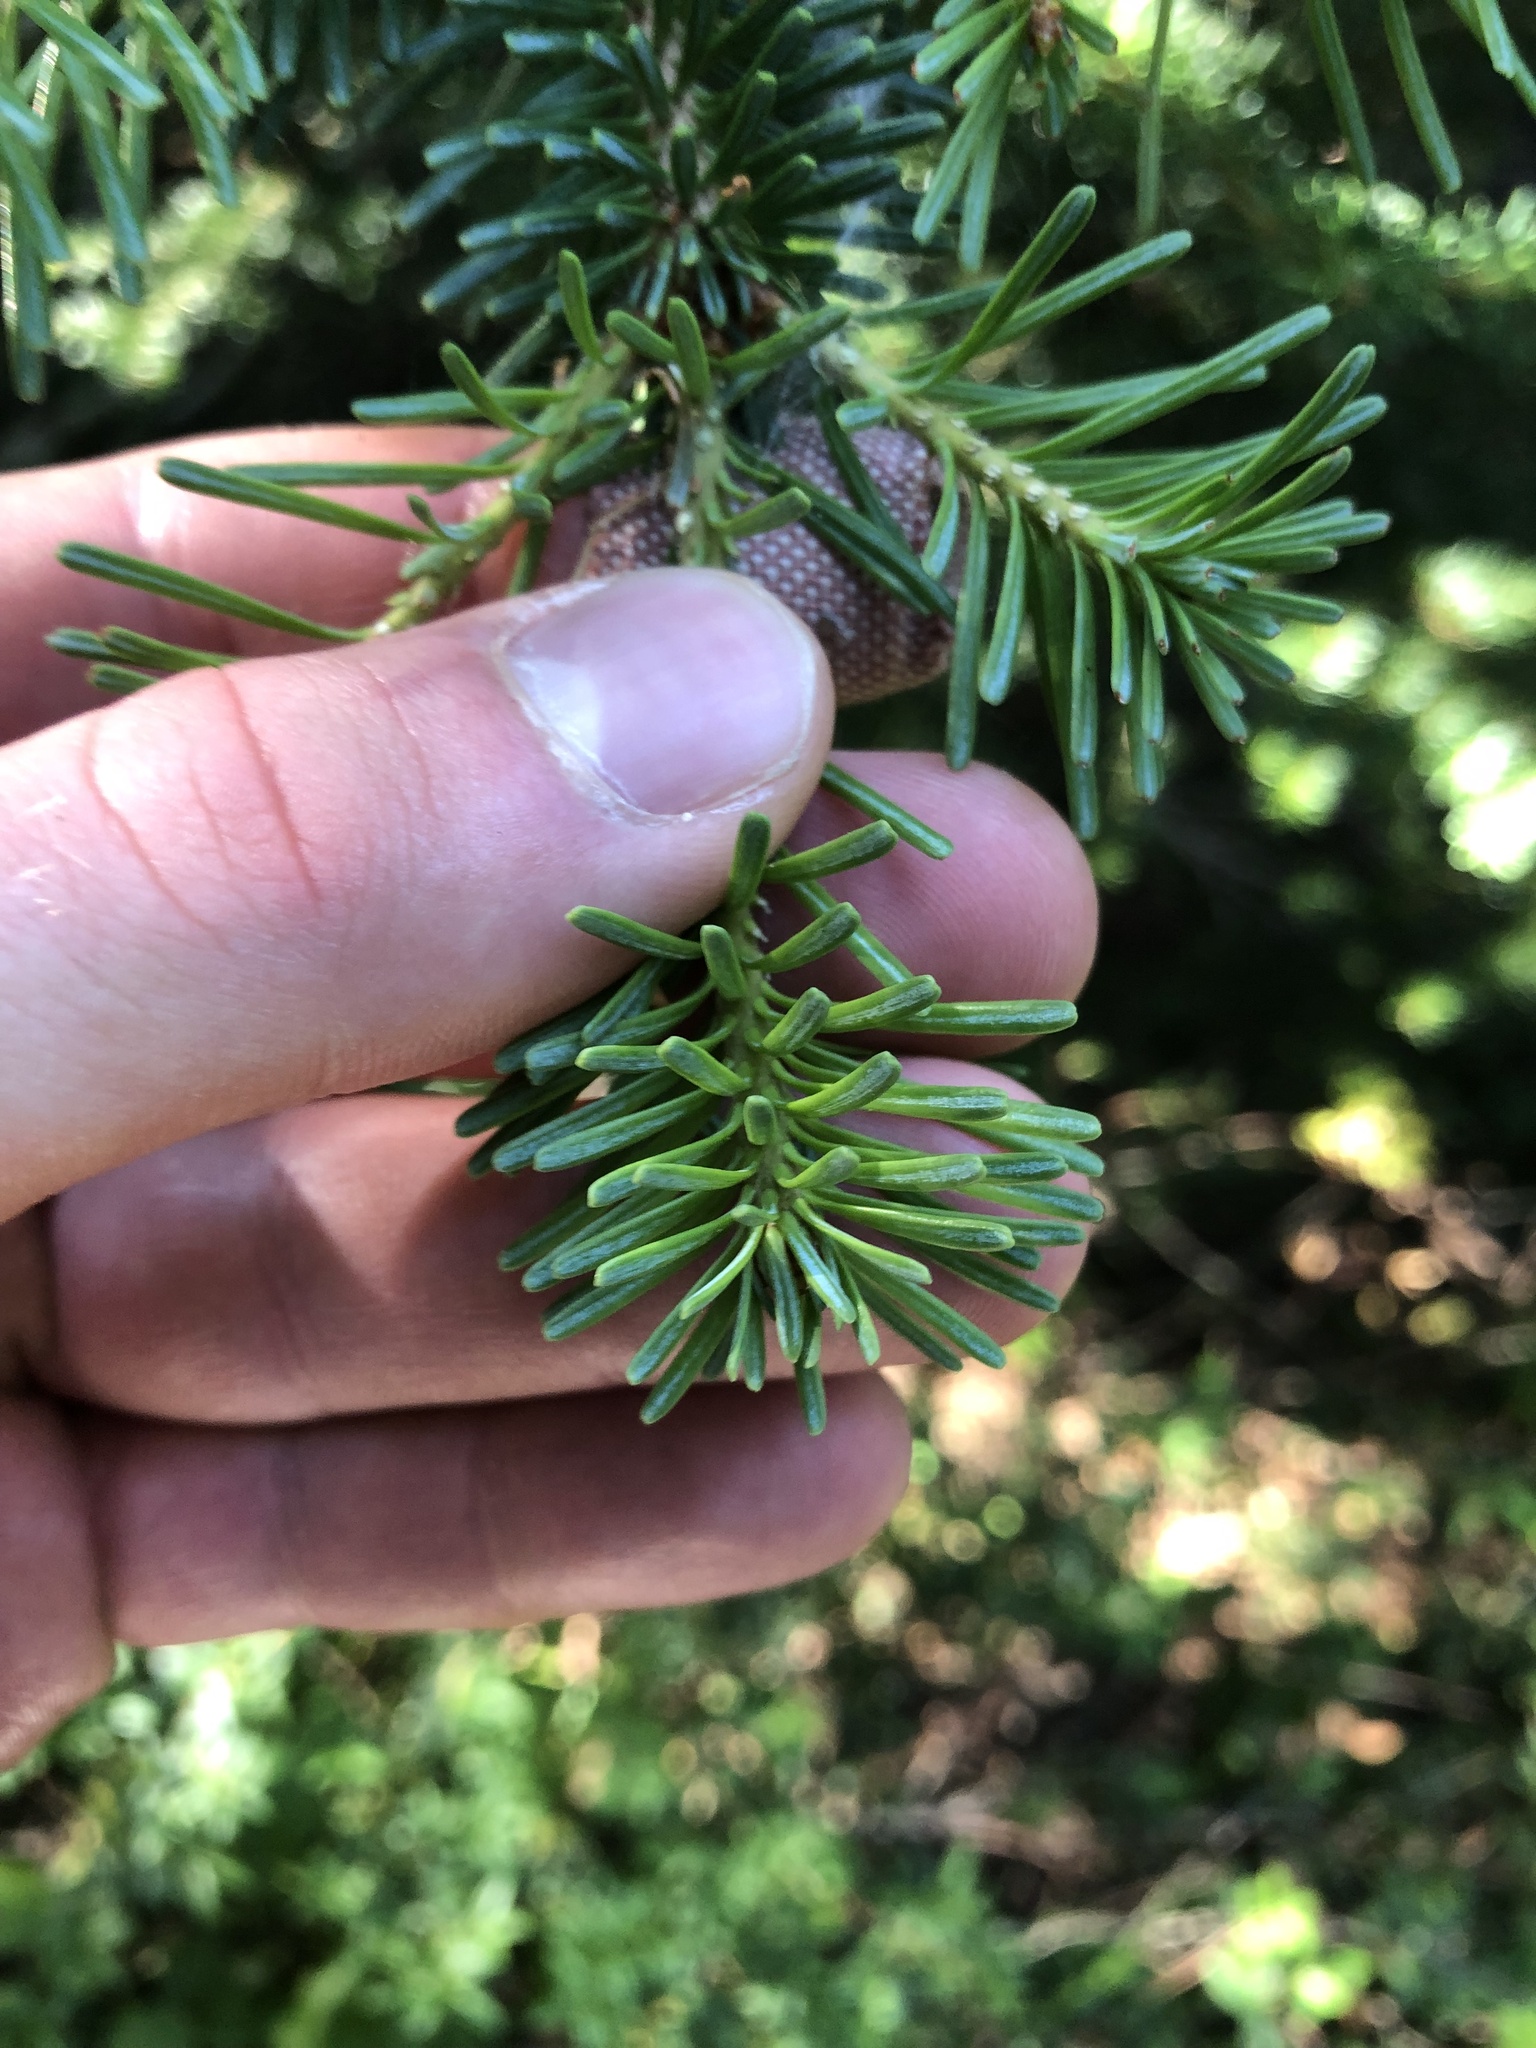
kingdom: Plantae
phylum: Tracheophyta
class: Pinopsida
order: Pinales
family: Pinaceae
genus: Abies
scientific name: Abies lasiocarpa
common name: Subalpine fir
